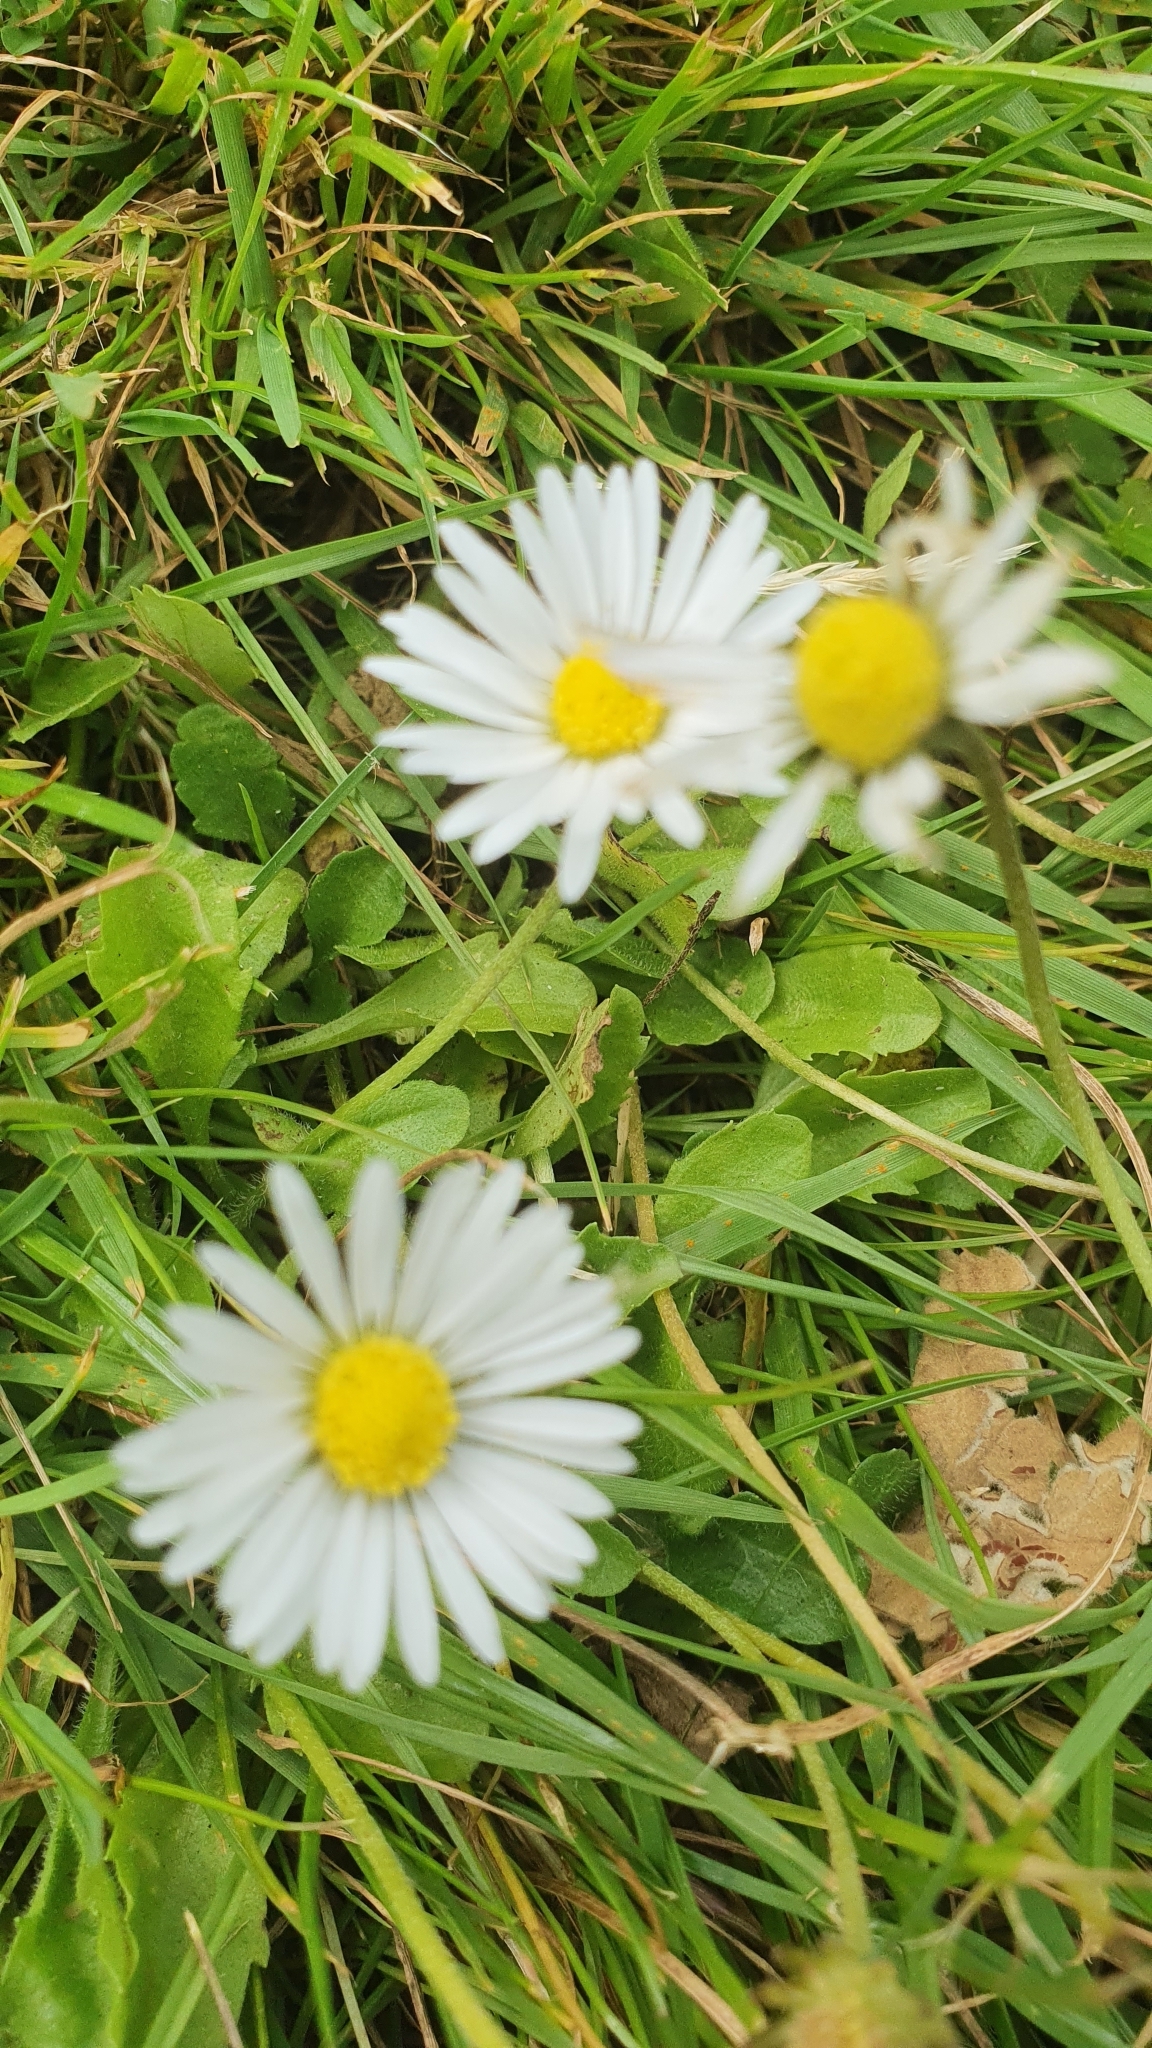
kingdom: Plantae
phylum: Tracheophyta
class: Magnoliopsida
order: Asterales
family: Asteraceae
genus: Bellis
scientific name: Bellis perennis
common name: Lawndaisy
